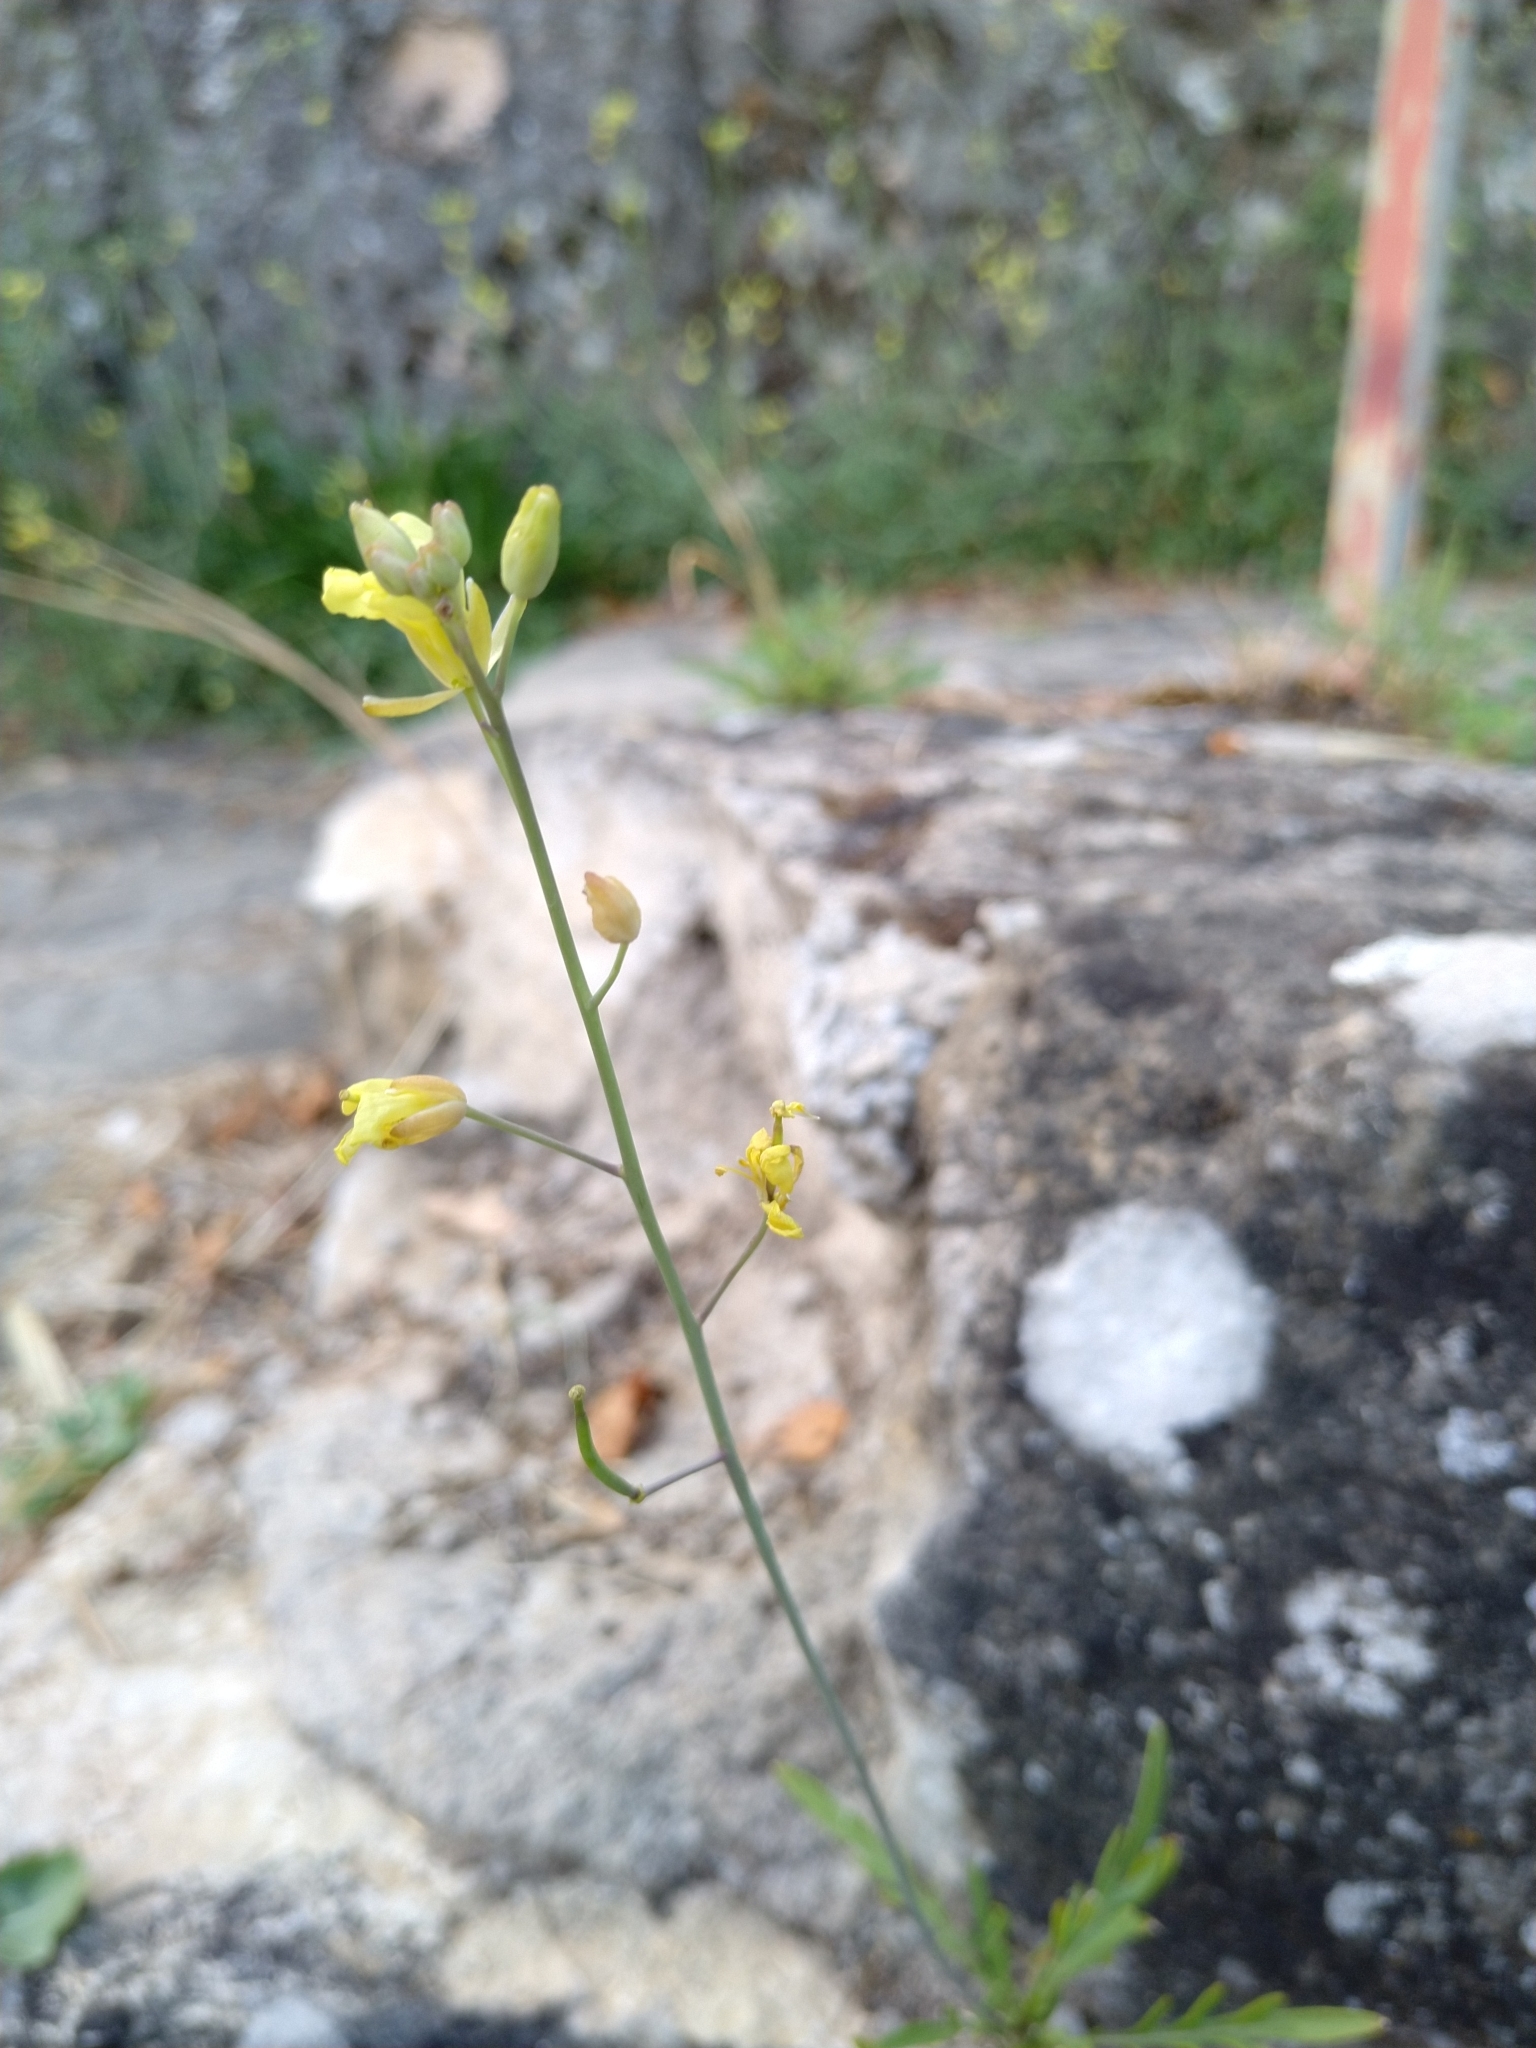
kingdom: Plantae
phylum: Tracheophyta
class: Magnoliopsida
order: Brassicales
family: Brassicaceae
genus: Diplotaxis
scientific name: Diplotaxis tenuifolia
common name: Perennial wall-rocket
